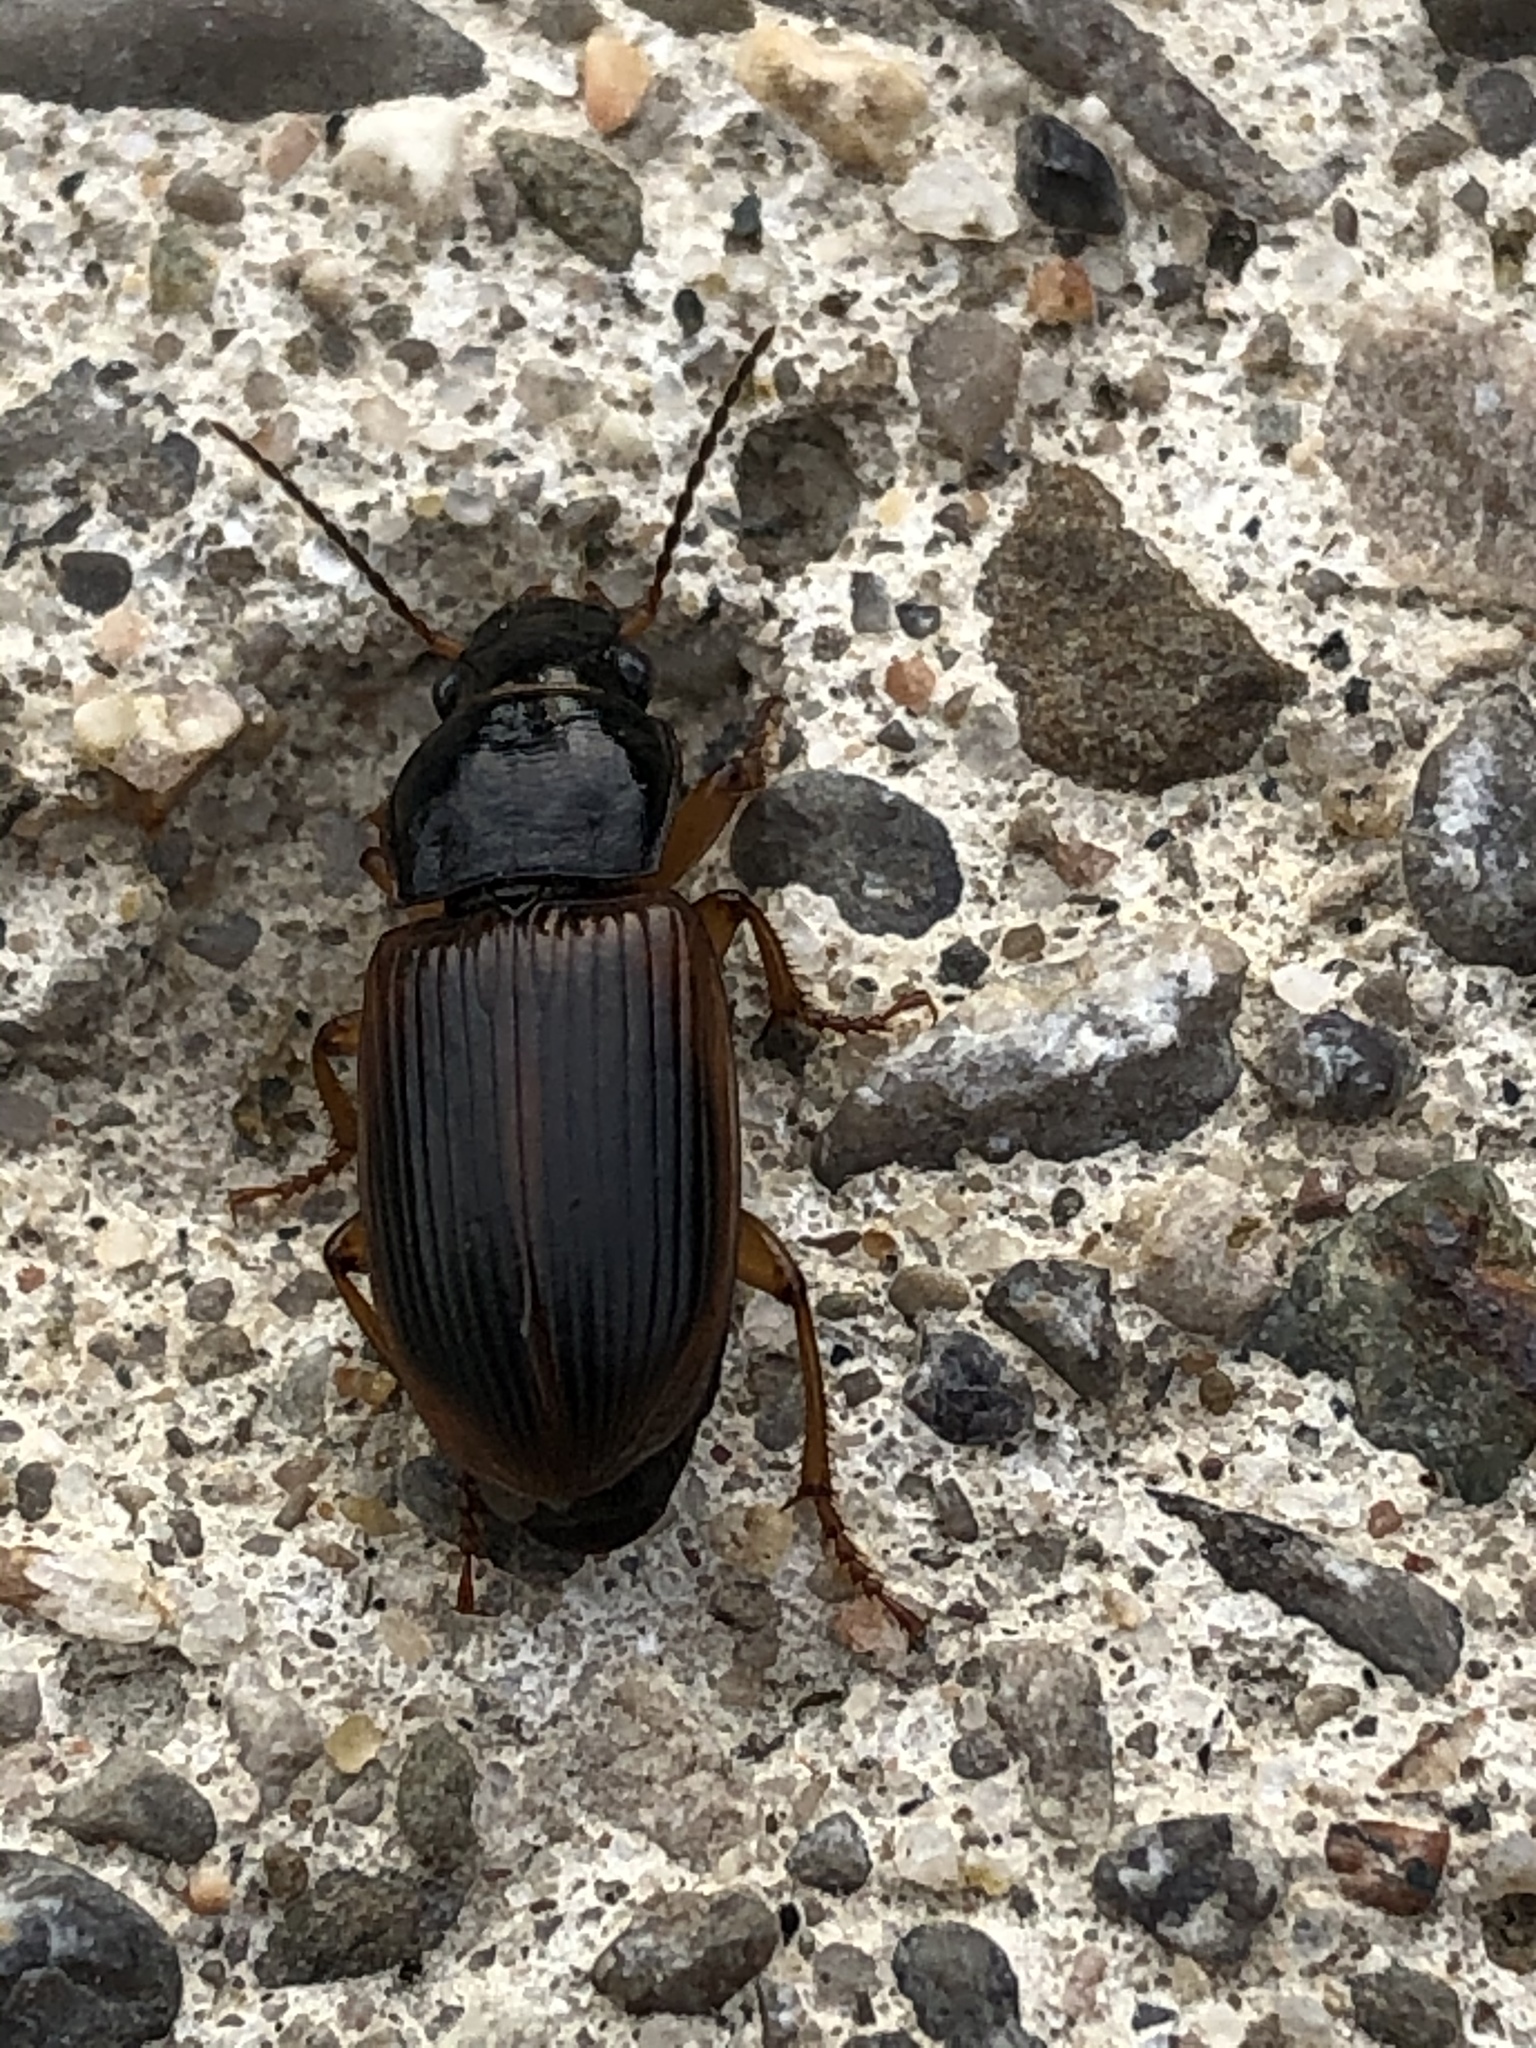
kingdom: Animalia
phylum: Arthropoda
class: Insecta
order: Coleoptera
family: Carabidae
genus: Anisodactylus
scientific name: Anisodactylus sanctaecrucis
